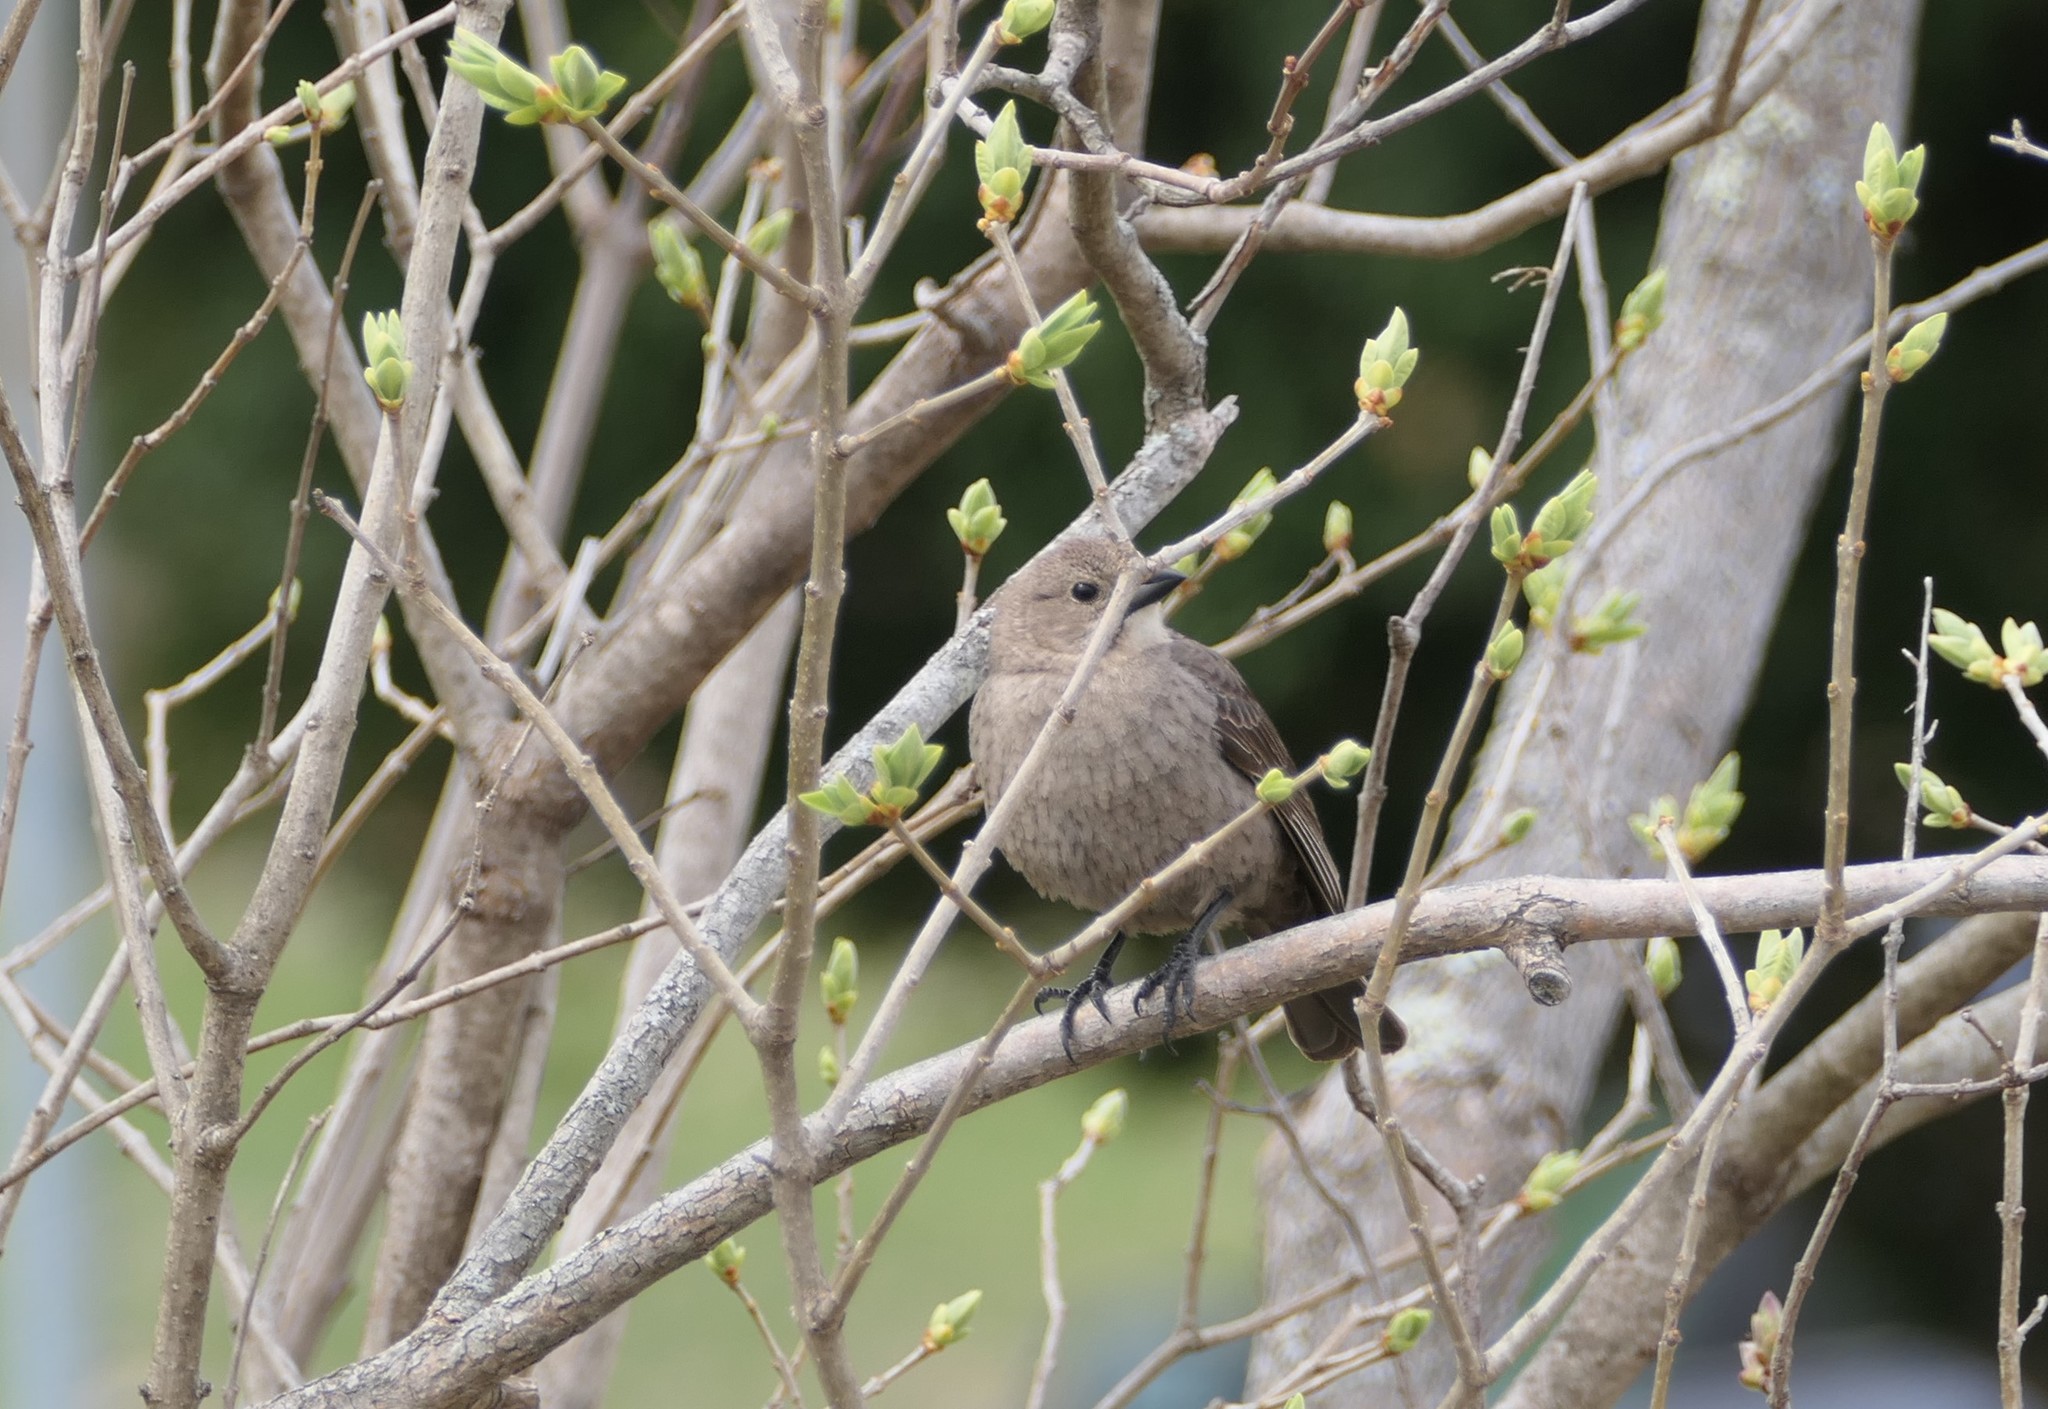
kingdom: Animalia
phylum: Chordata
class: Aves
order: Passeriformes
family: Icteridae
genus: Molothrus
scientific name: Molothrus ater
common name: Brown-headed cowbird
